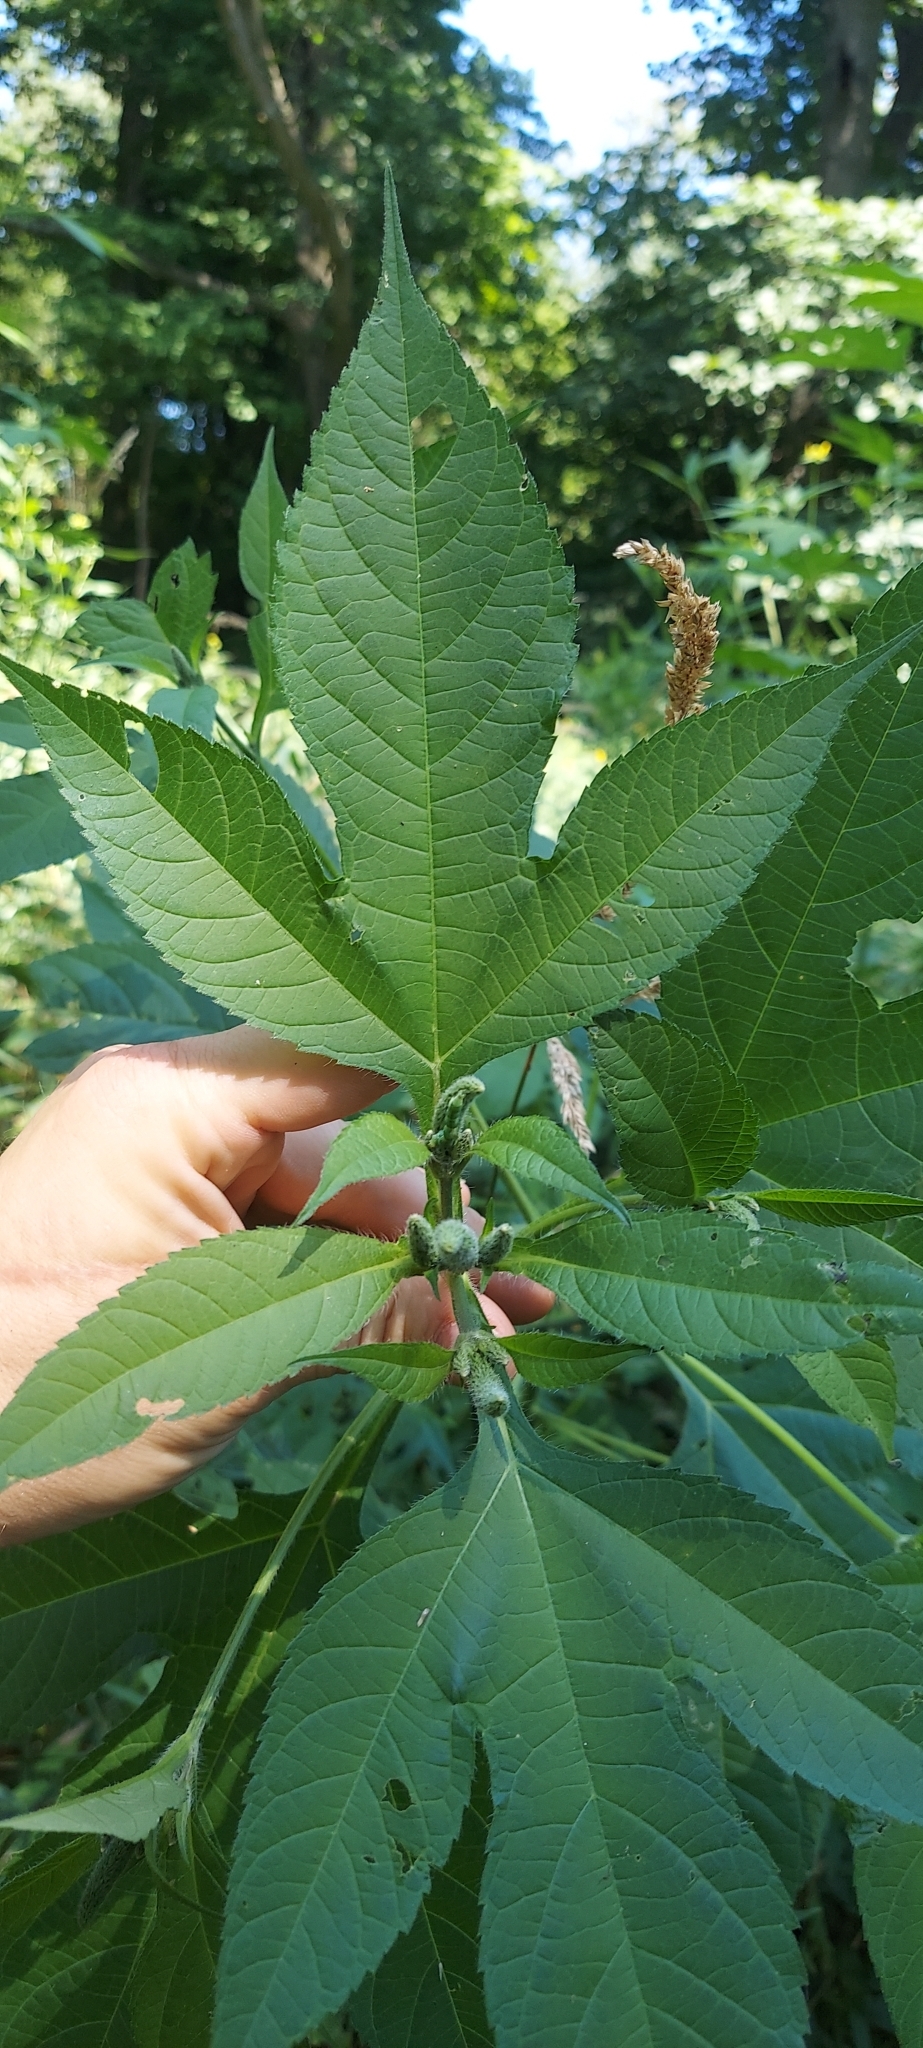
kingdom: Plantae
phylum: Tracheophyta
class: Magnoliopsida
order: Asterales
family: Asteraceae
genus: Ambrosia
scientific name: Ambrosia trifida
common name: Giant ragweed
